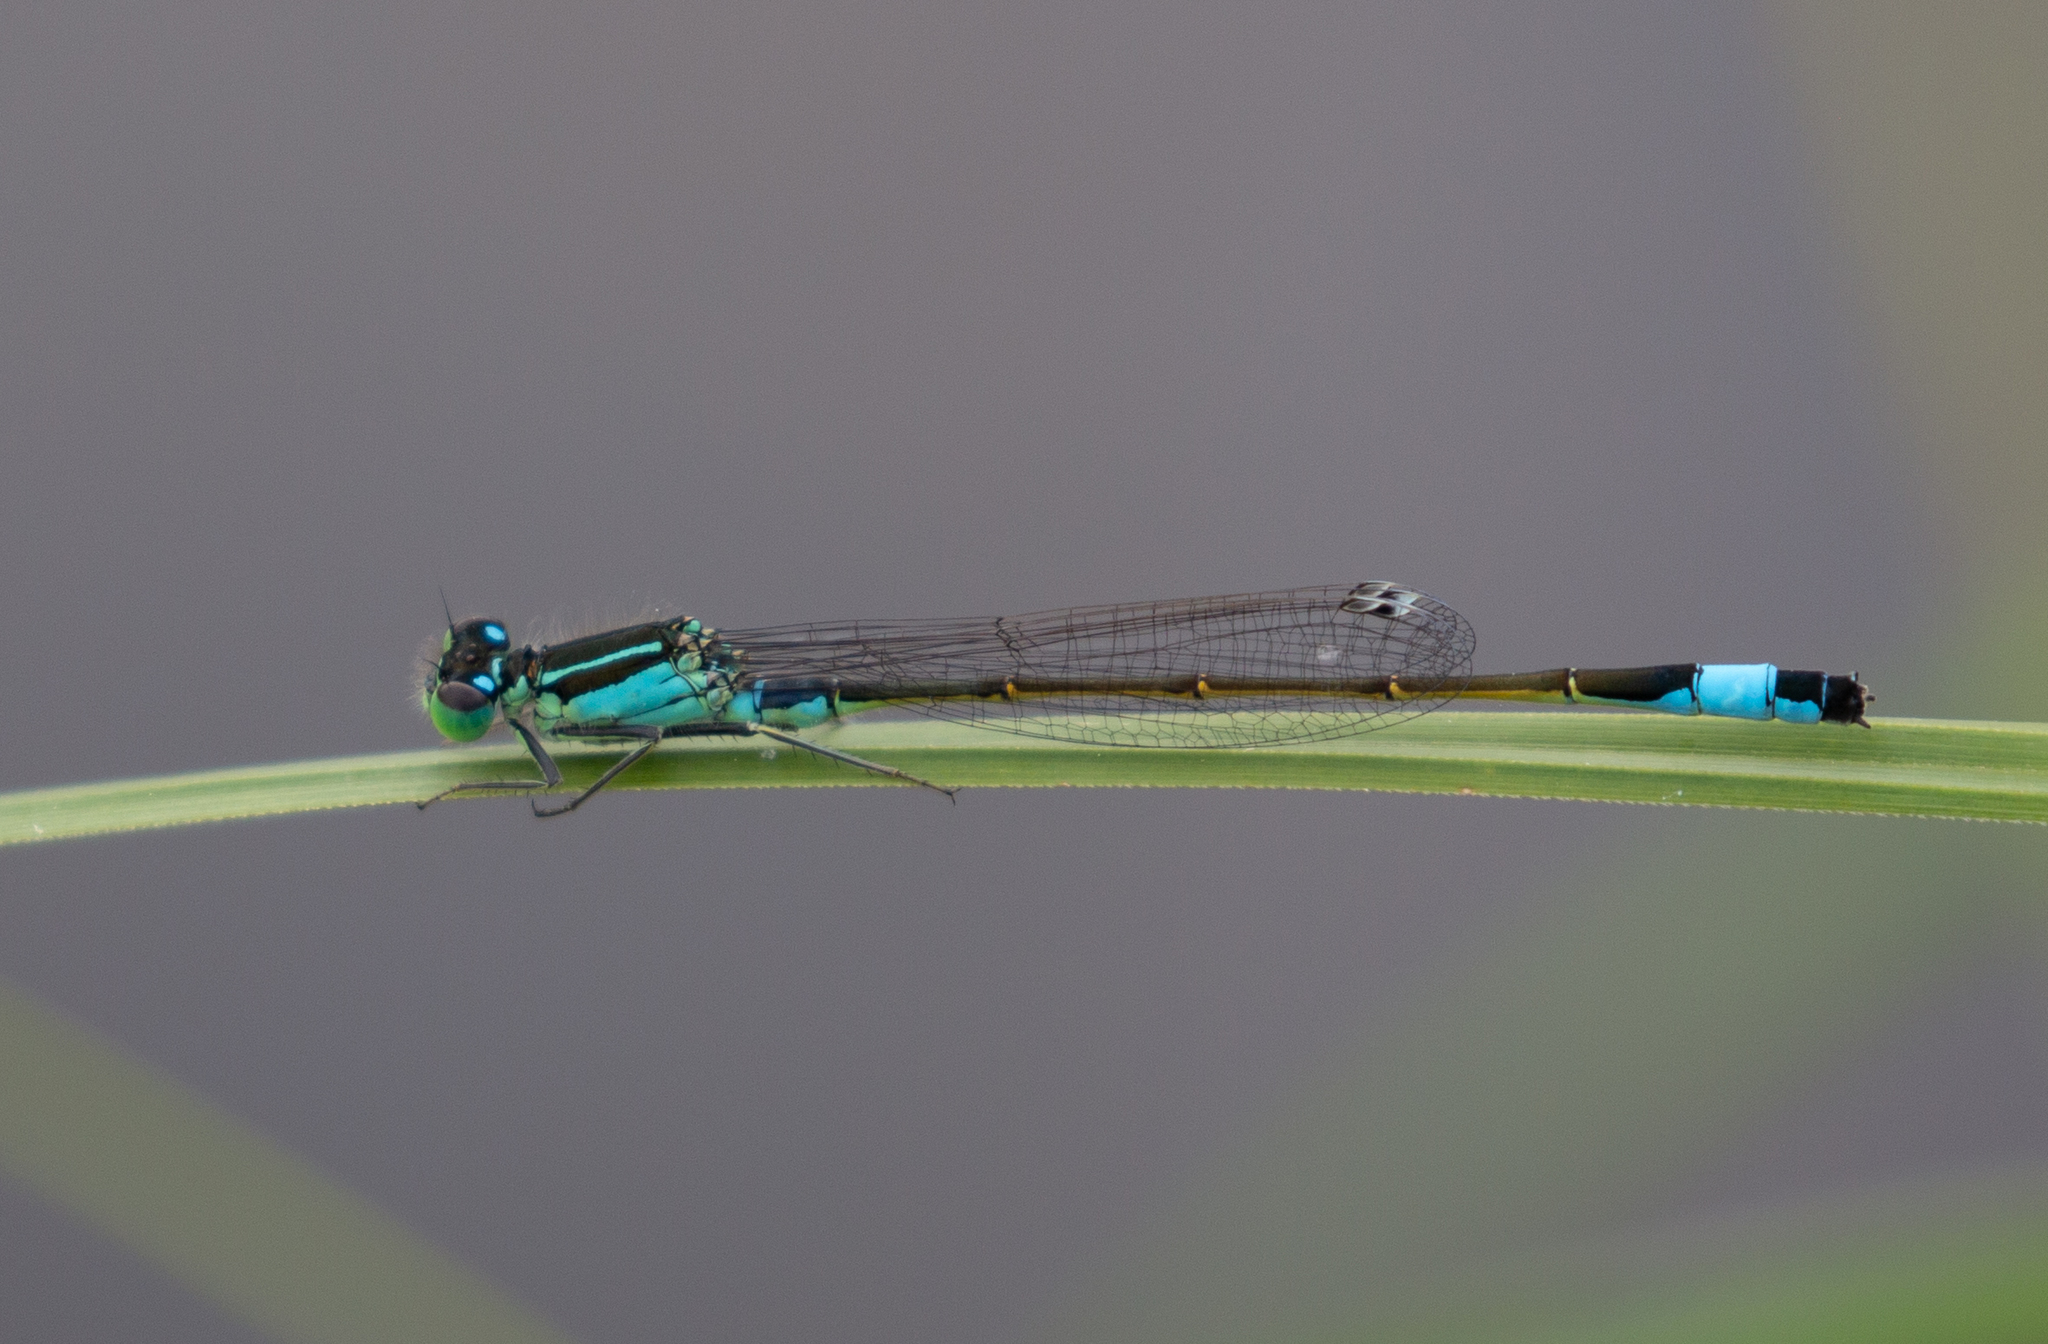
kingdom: Animalia
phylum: Arthropoda
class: Insecta
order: Odonata
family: Coenagrionidae
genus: Ischnura
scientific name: Ischnura elegans
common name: Blue-tailed damselfly
